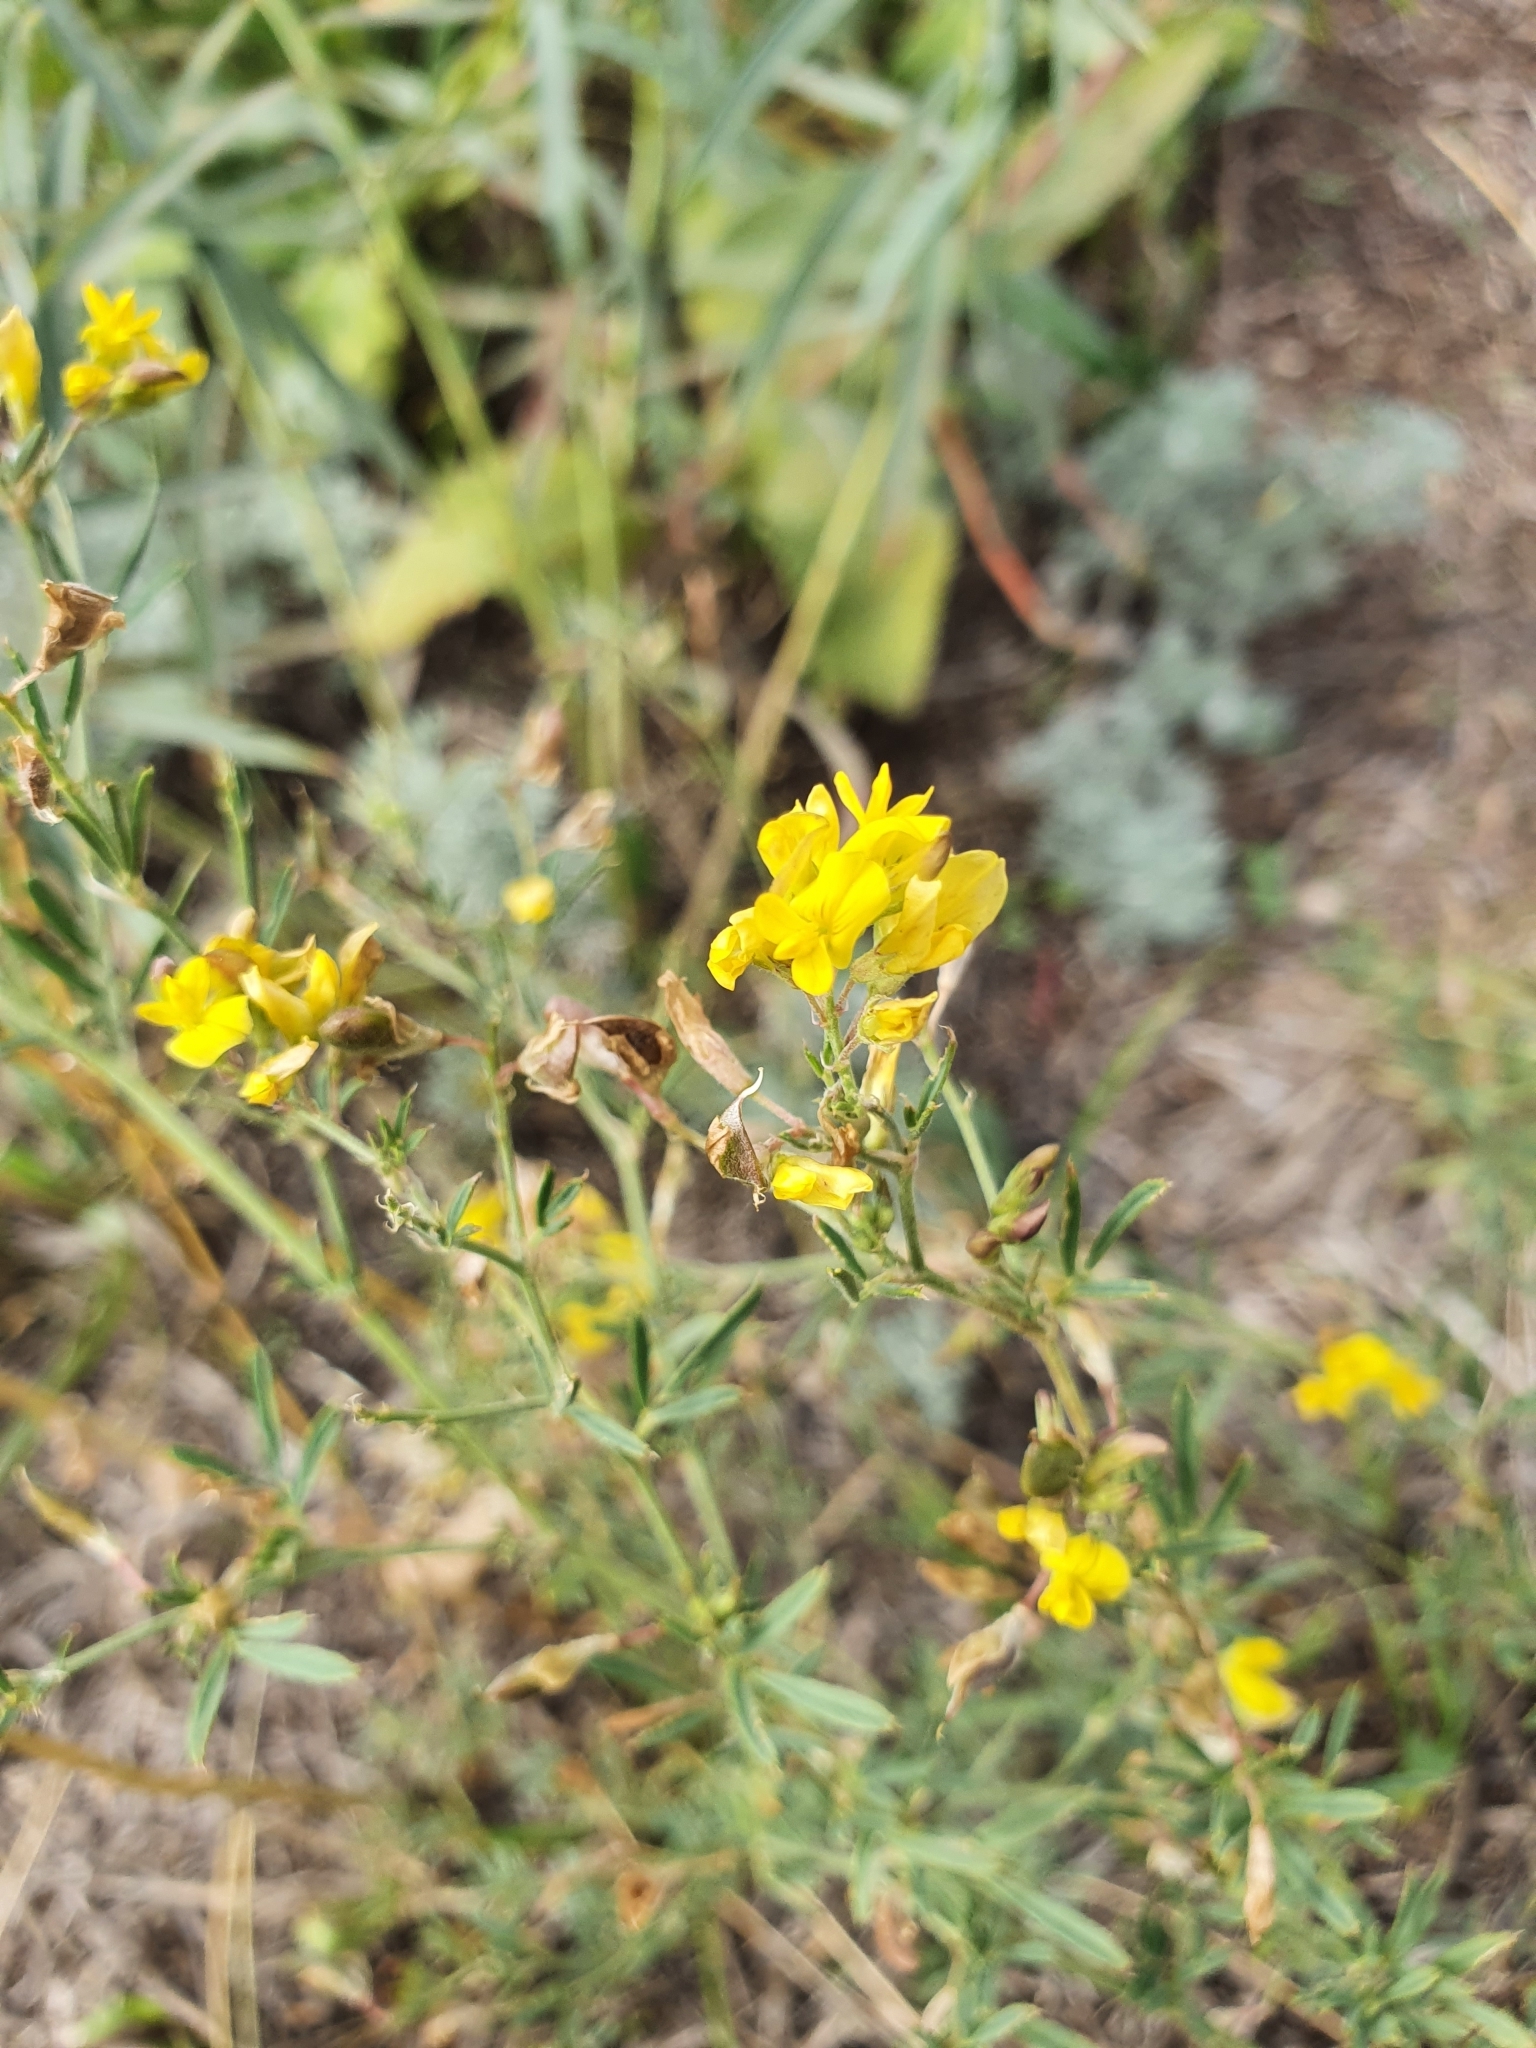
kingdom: Plantae
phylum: Tracheophyta
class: Magnoliopsida
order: Fabales
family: Fabaceae
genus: Medicago
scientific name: Medicago falcata
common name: Sickle medick
